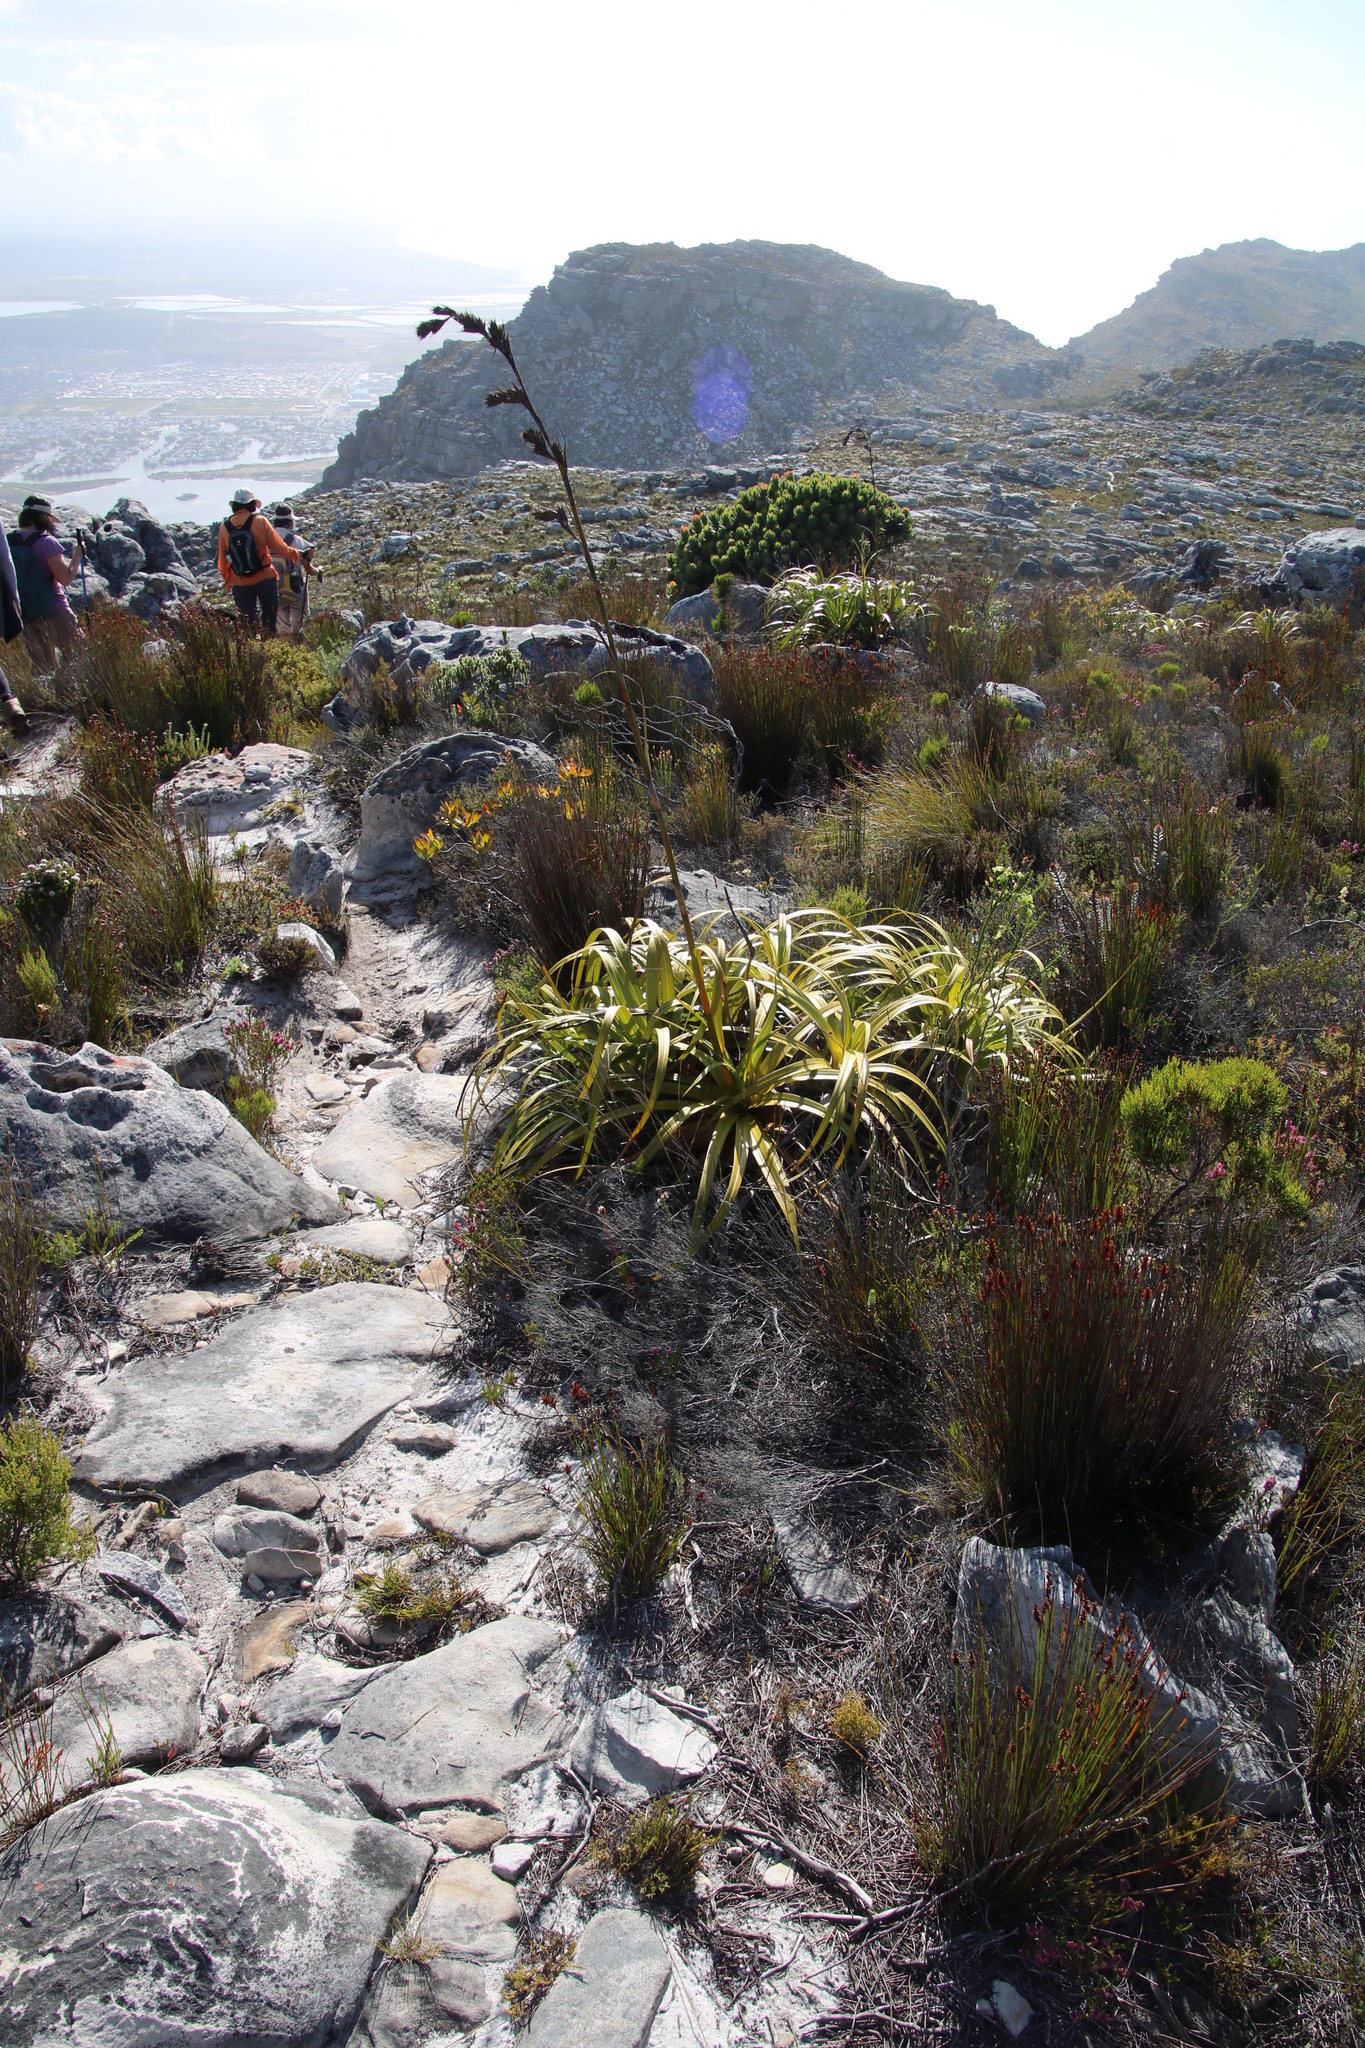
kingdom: Plantae
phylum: Tracheophyta
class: Liliopsida
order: Poales
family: Cyperaceae
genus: Tetraria
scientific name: Tetraria thermalis
